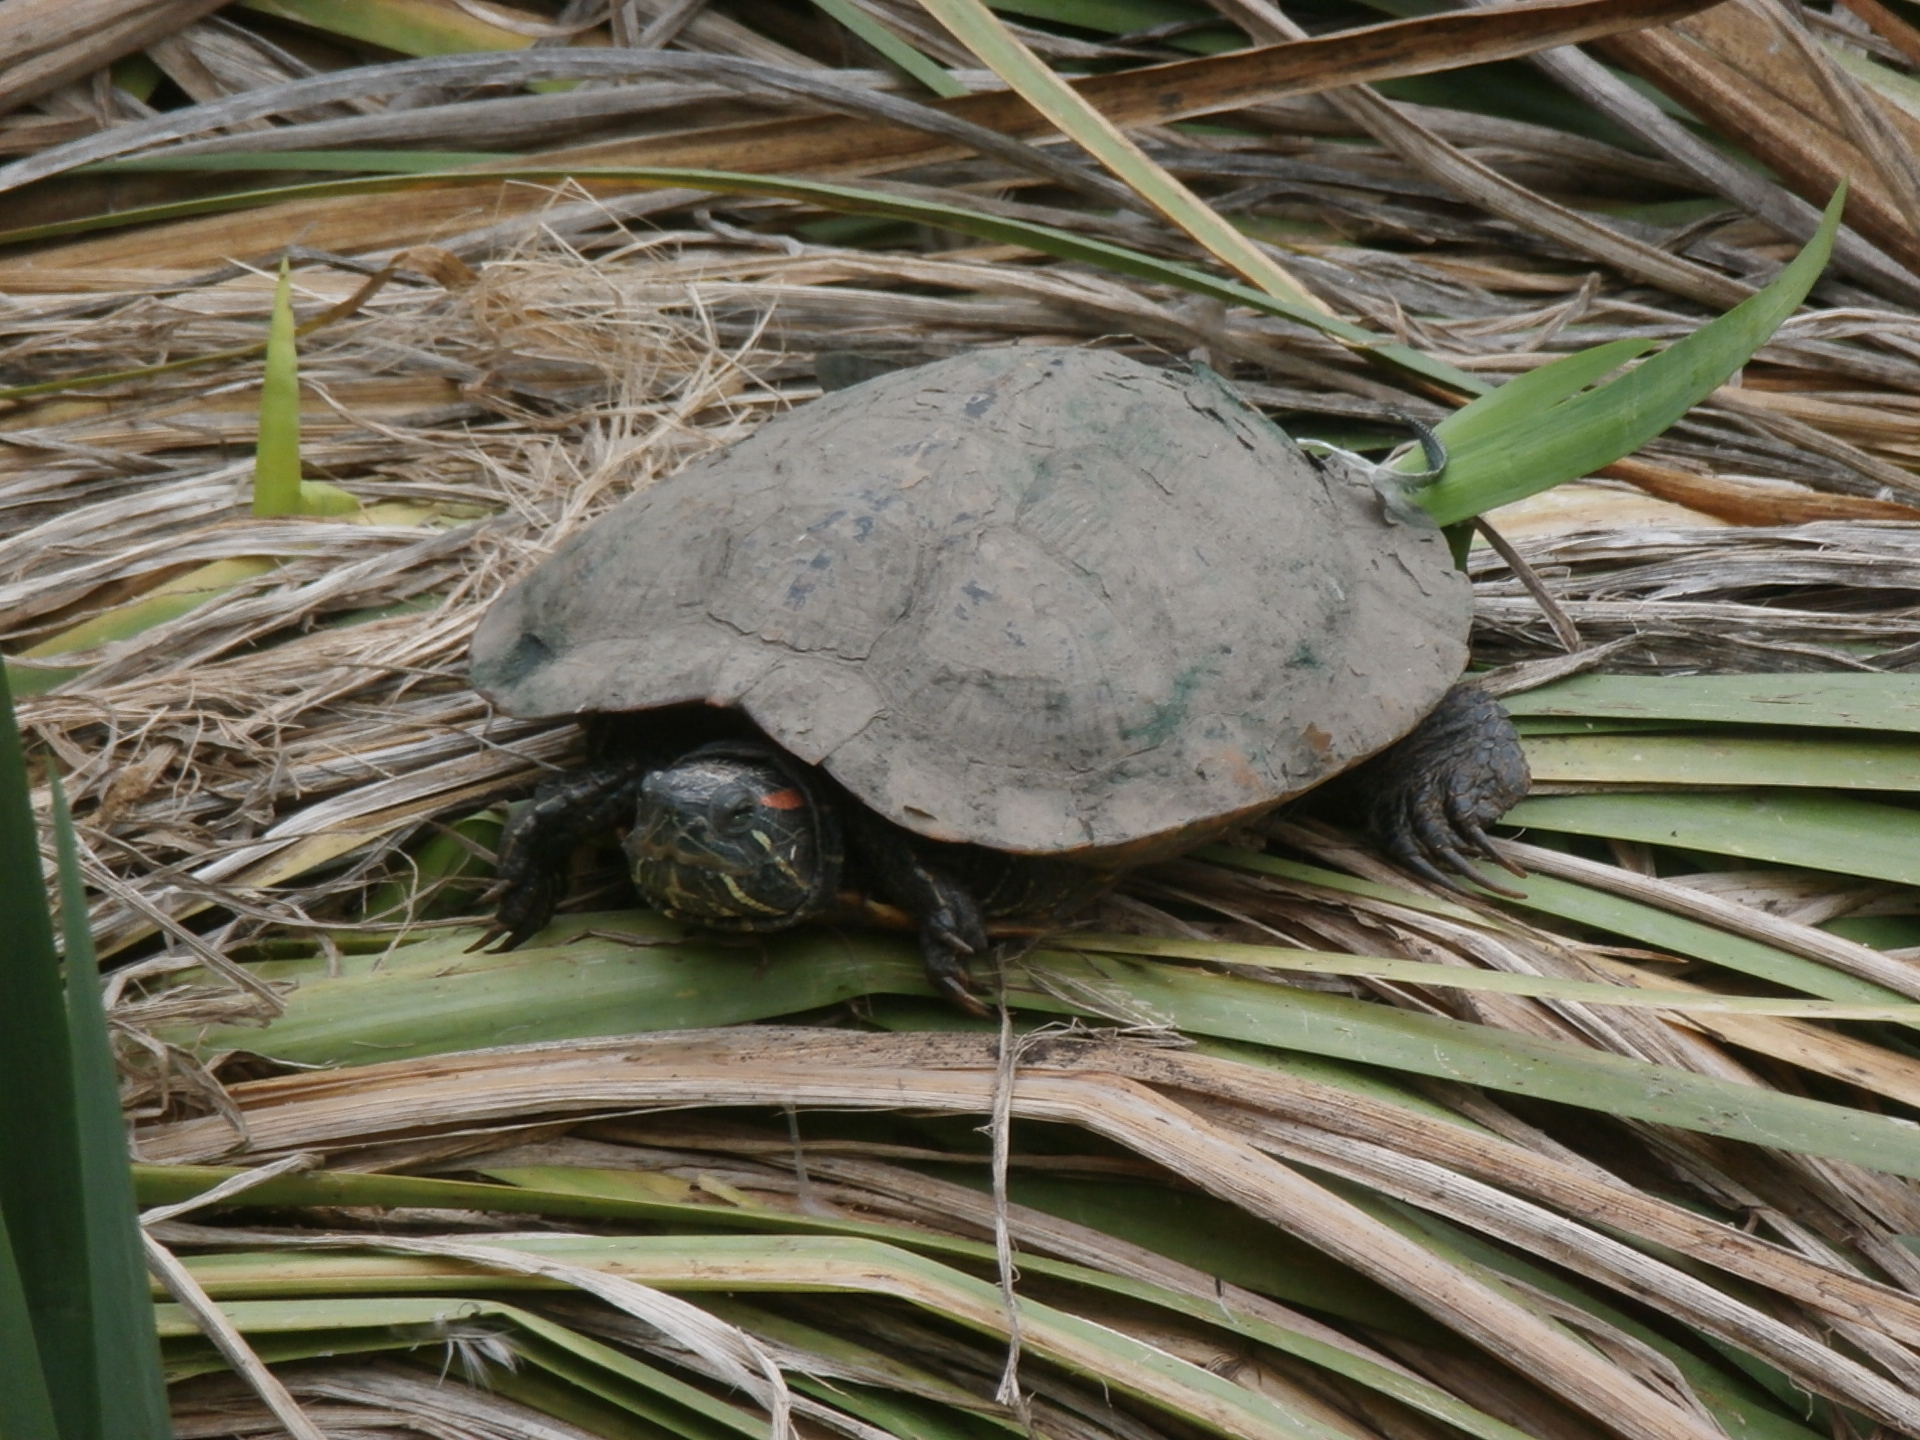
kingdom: Animalia
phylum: Chordata
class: Testudines
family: Emydidae
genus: Trachemys
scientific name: Trachemys scripta
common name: Slider
